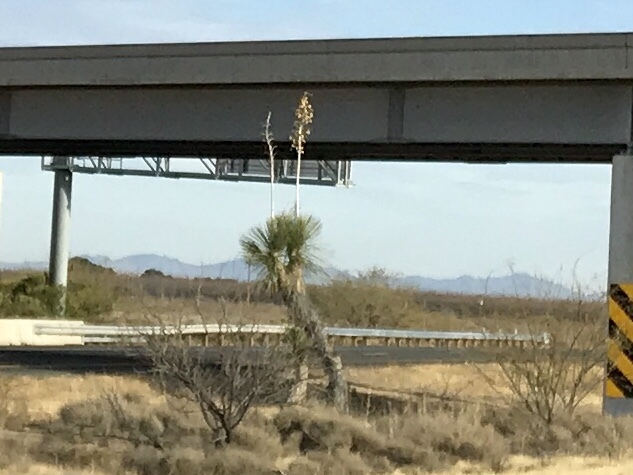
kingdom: Plantae
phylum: Tracheophyta
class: Liliopsida
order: Asparagales
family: Asparagaceae
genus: Yucca
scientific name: Yucca elata
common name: Palmella
